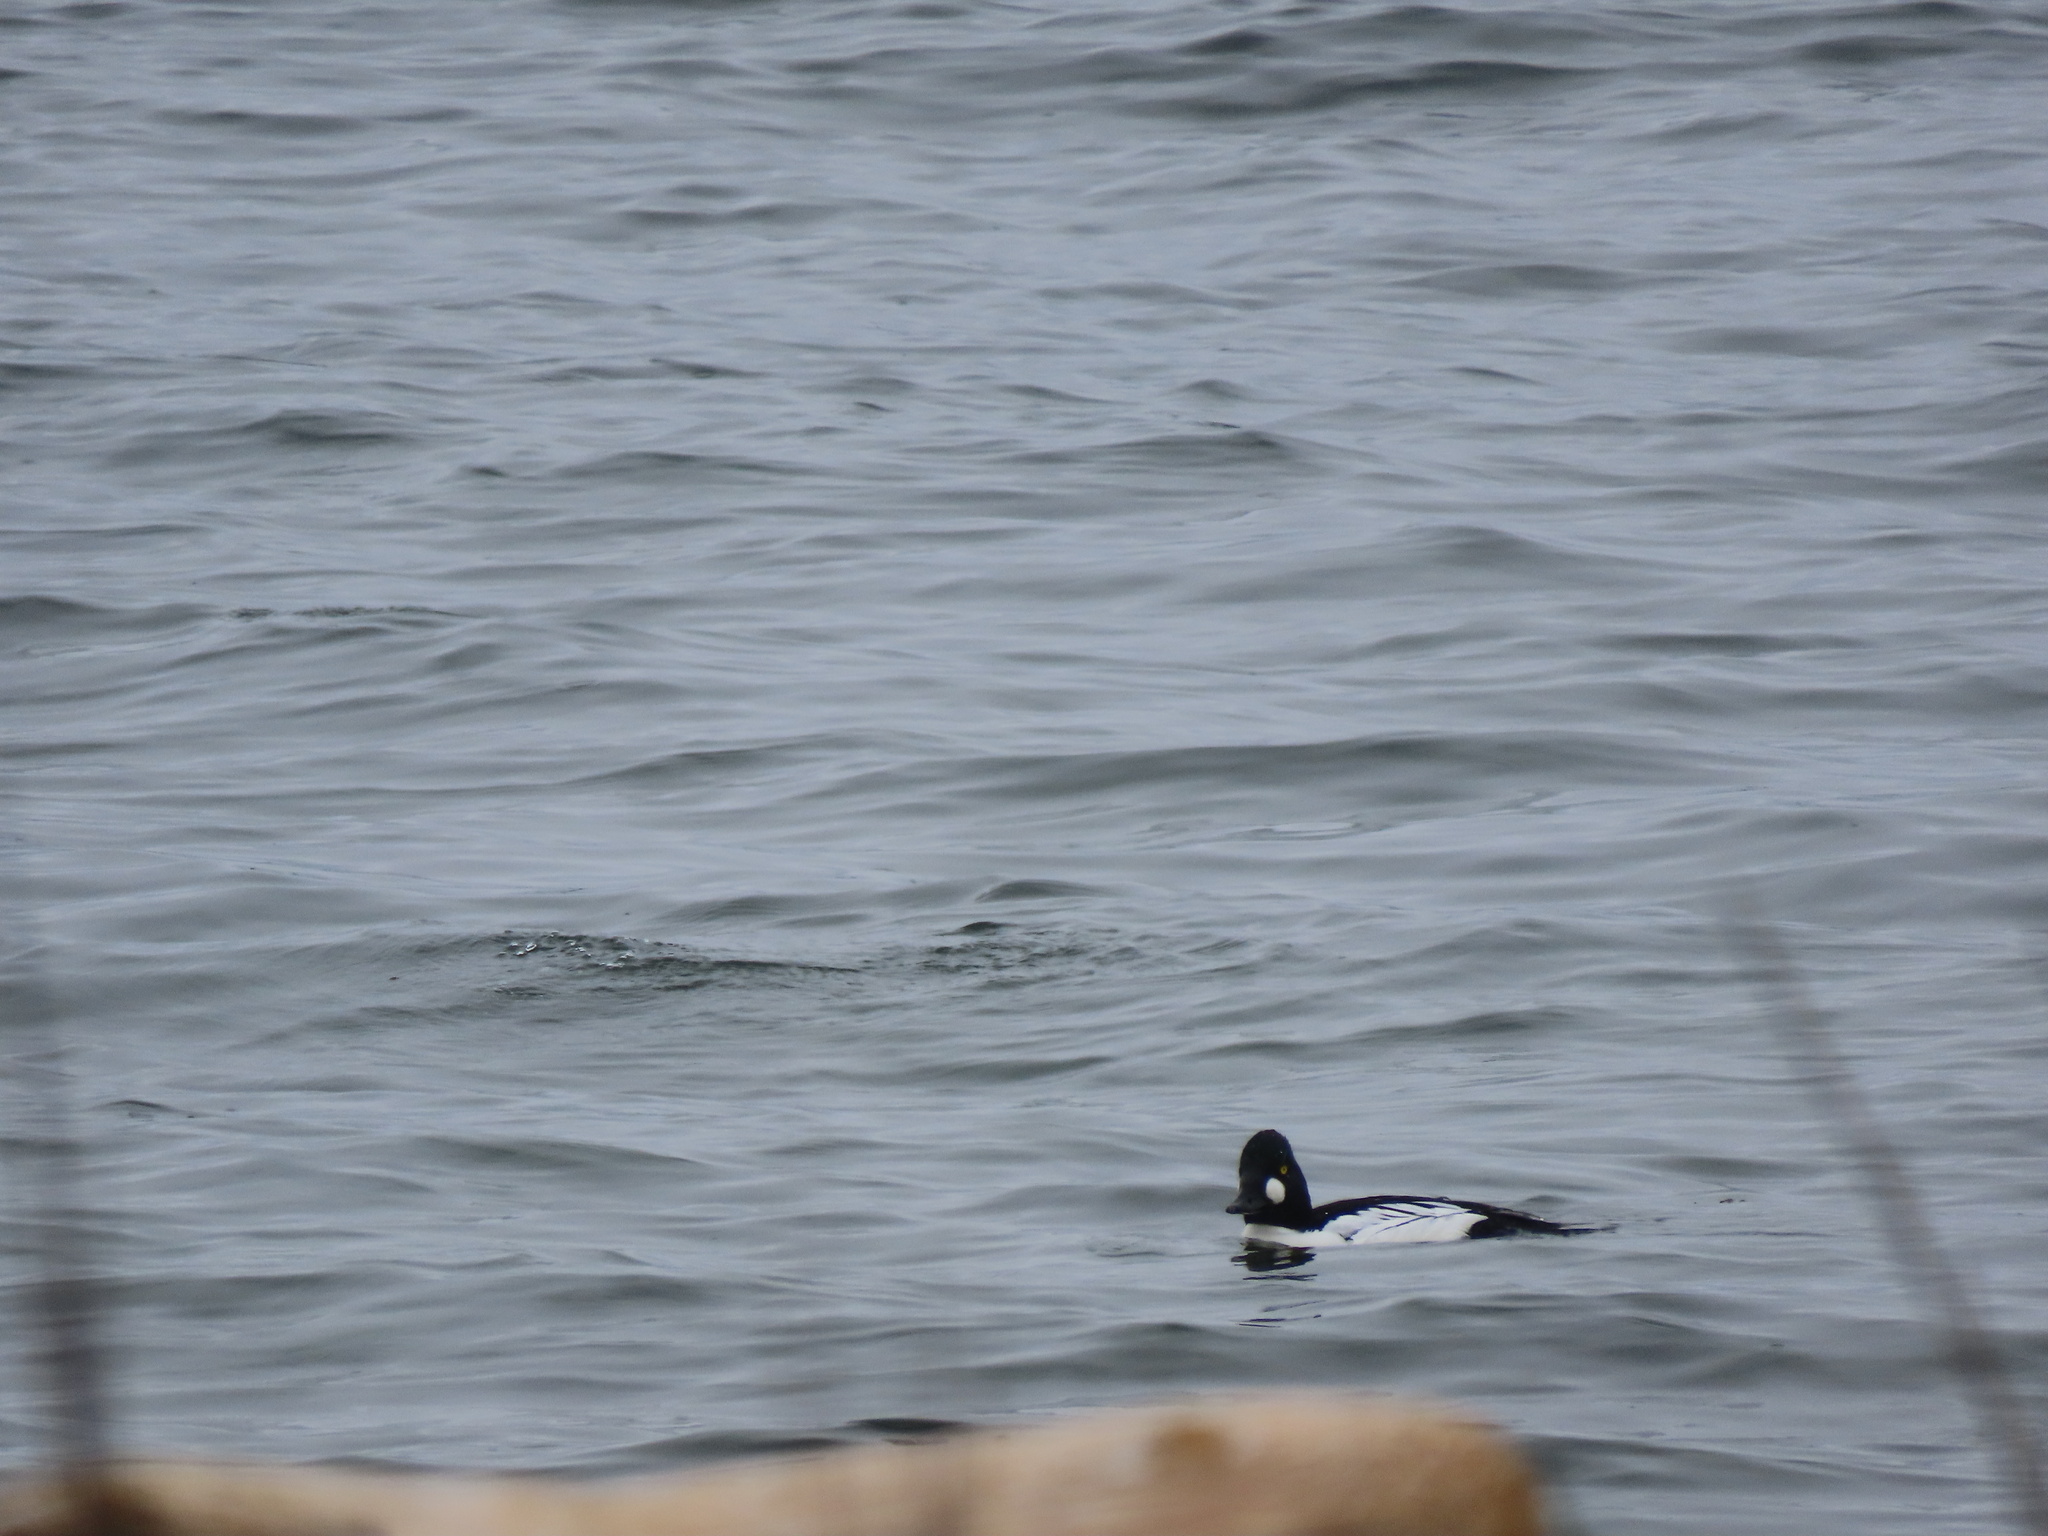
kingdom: Animalia
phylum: Chordata
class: Aves
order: Anseriformes
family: Anatidae
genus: Bucephala
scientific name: Bucephala clangula
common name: Common goldeneye
